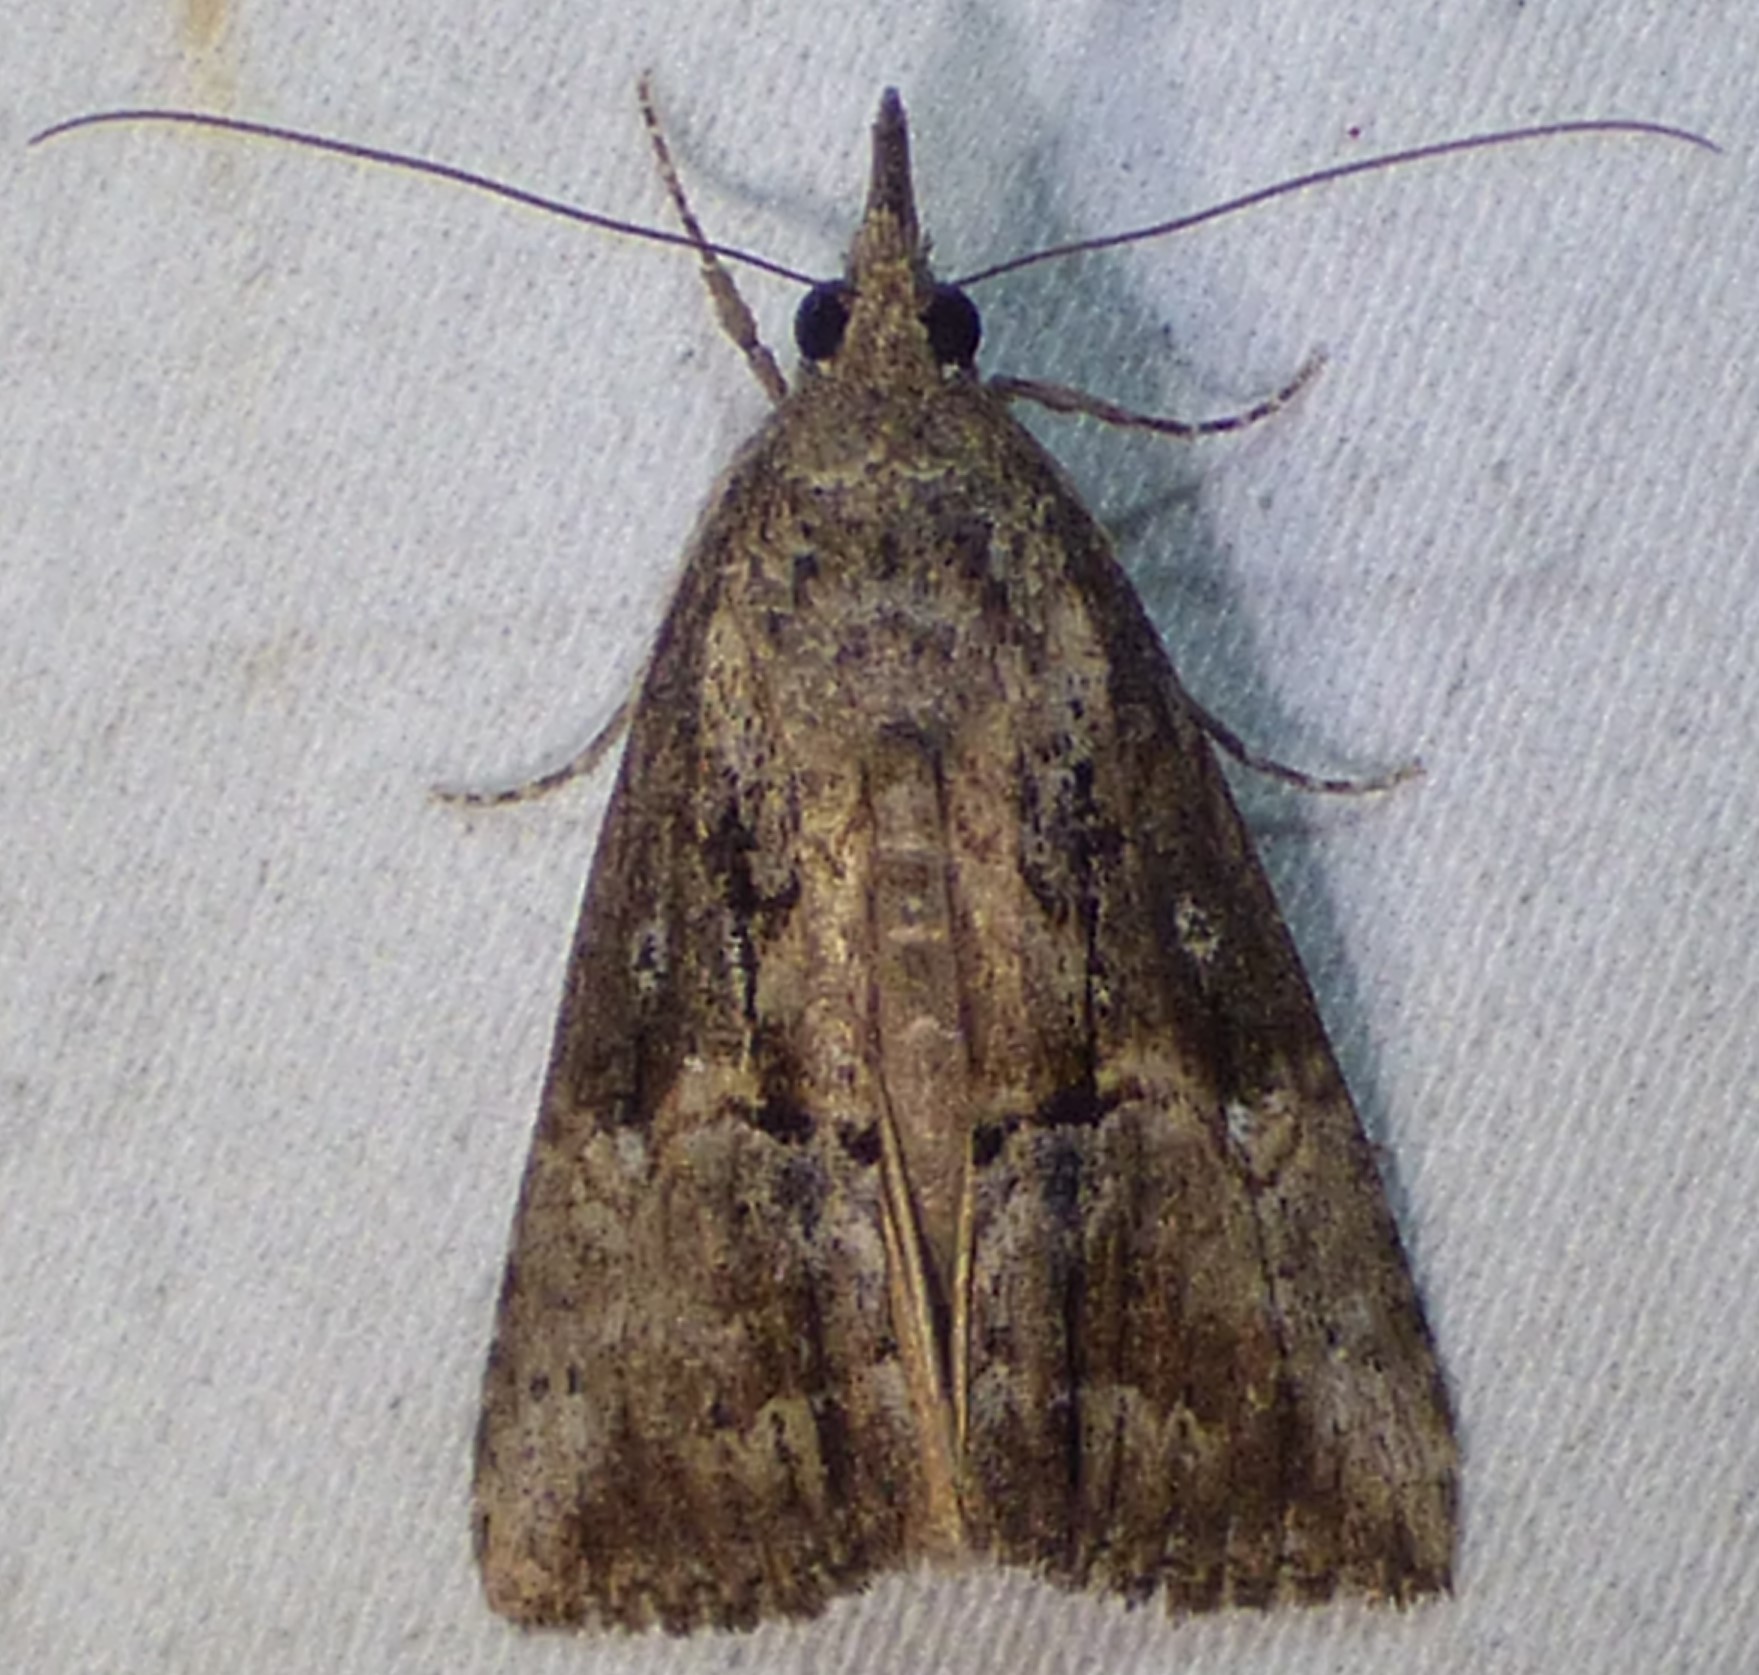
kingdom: Animalia
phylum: Arthropoda
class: Insecta
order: Lepidoptera
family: Erebidae
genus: Hypena
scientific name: Hypena scabra
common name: Green cloverworm
